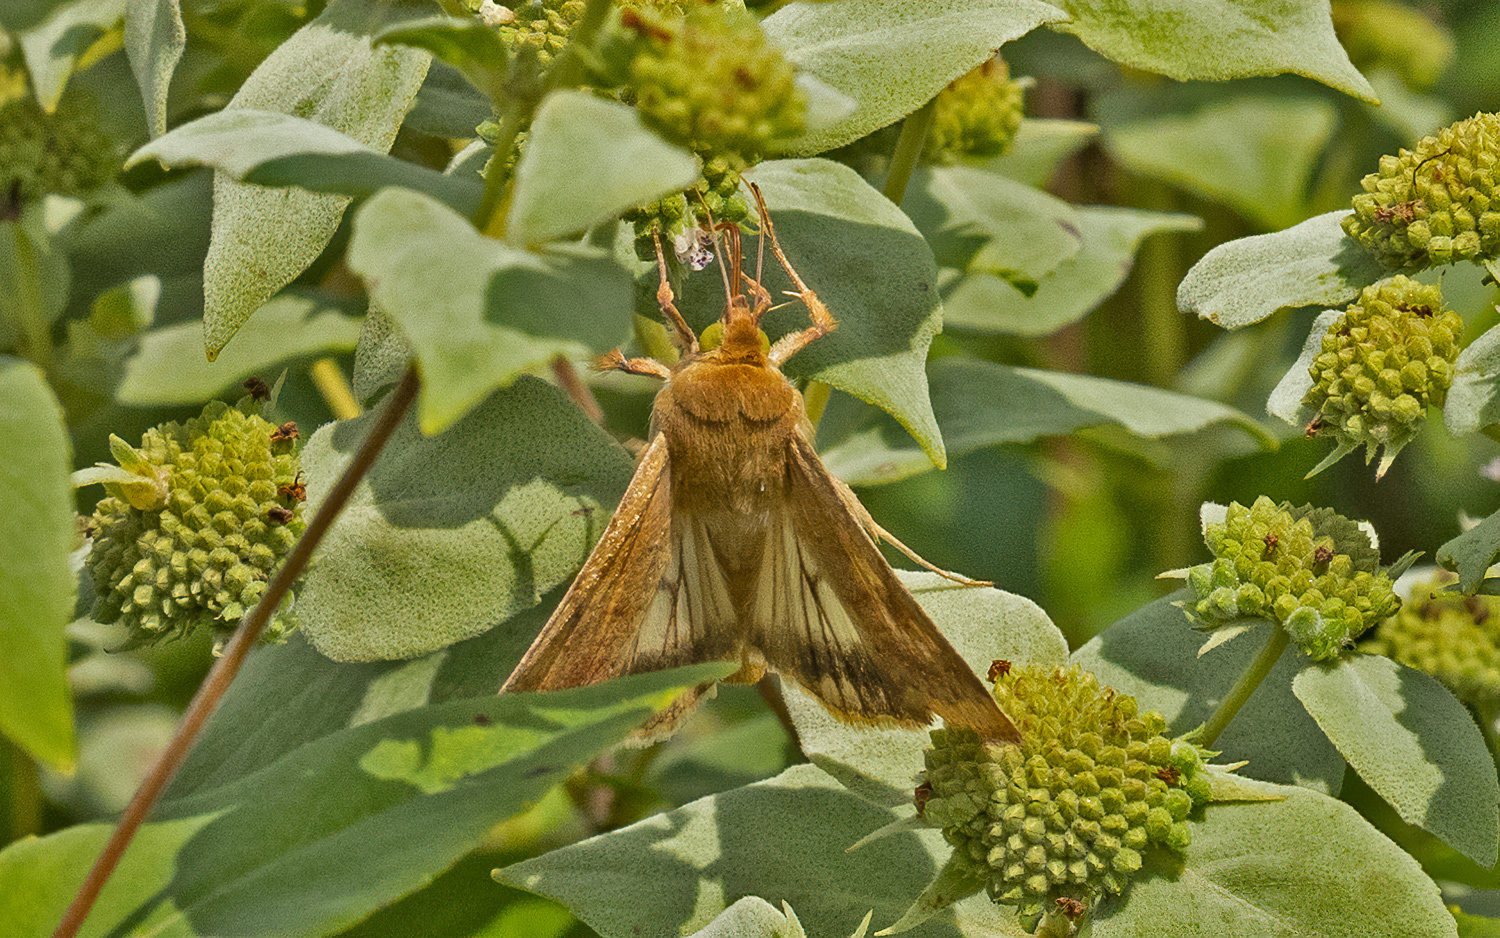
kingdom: Animalia
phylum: Arthropoda
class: Insecta
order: Lepidoptera
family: Noctuidae
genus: Helicoverpa
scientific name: Helicoverpa zea
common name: Bollworm
